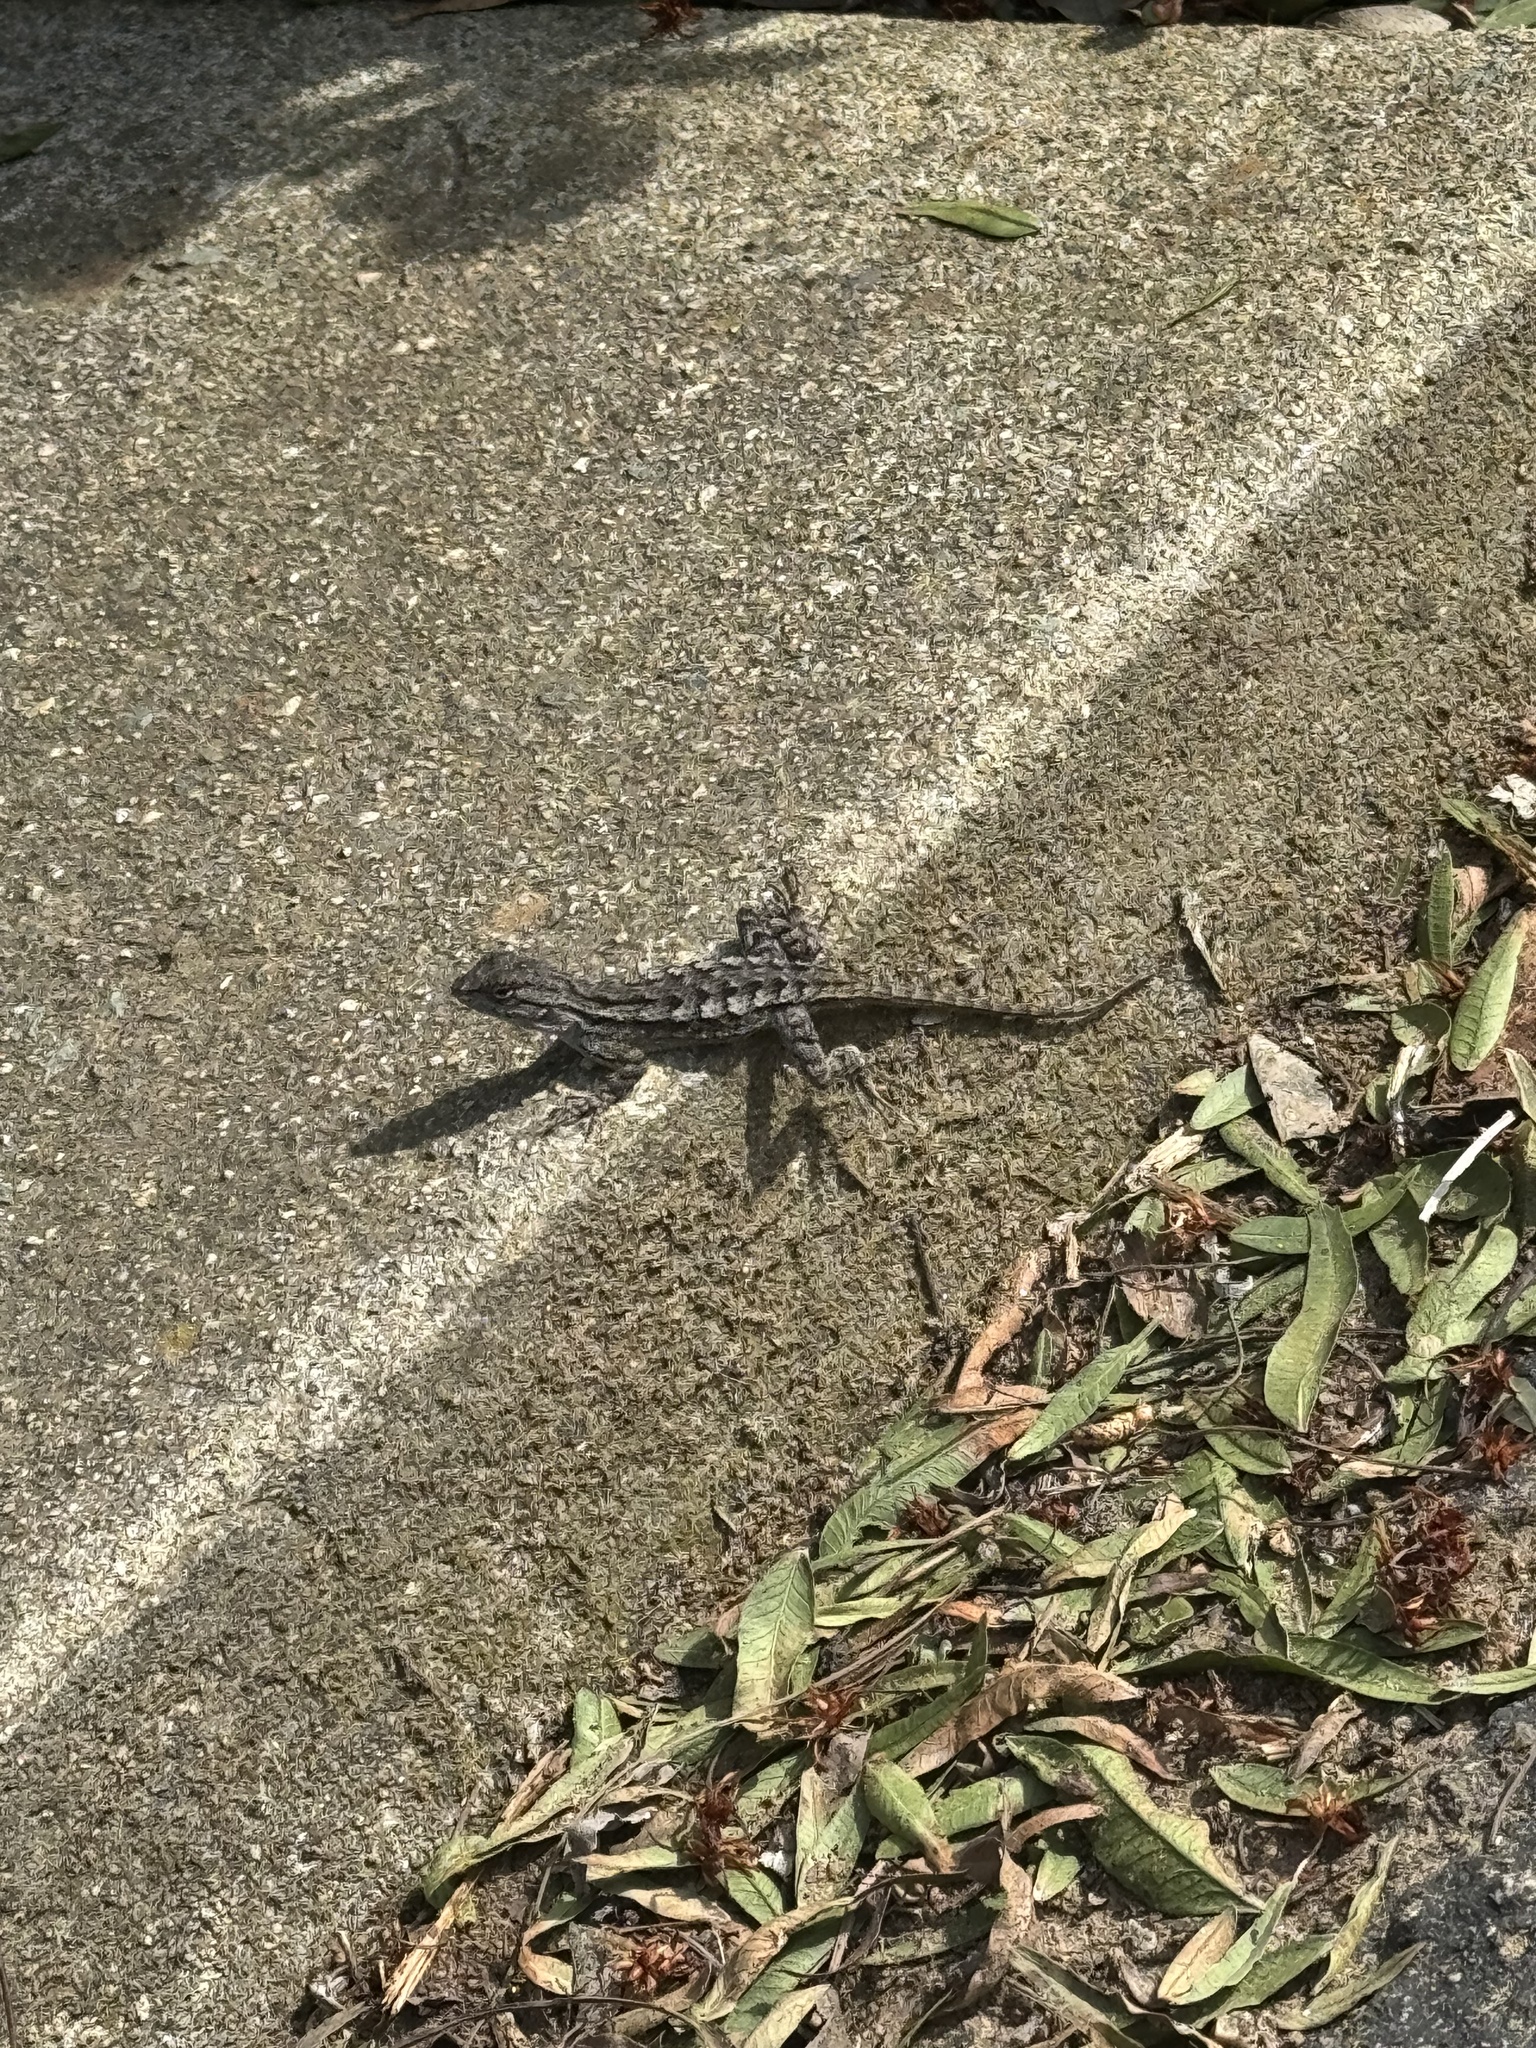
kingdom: Animalia
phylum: Chordata
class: Squamata
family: Phrynosomatidae
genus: Sceloporus
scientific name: Sceloporus occidentalis
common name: Western fence lizard
